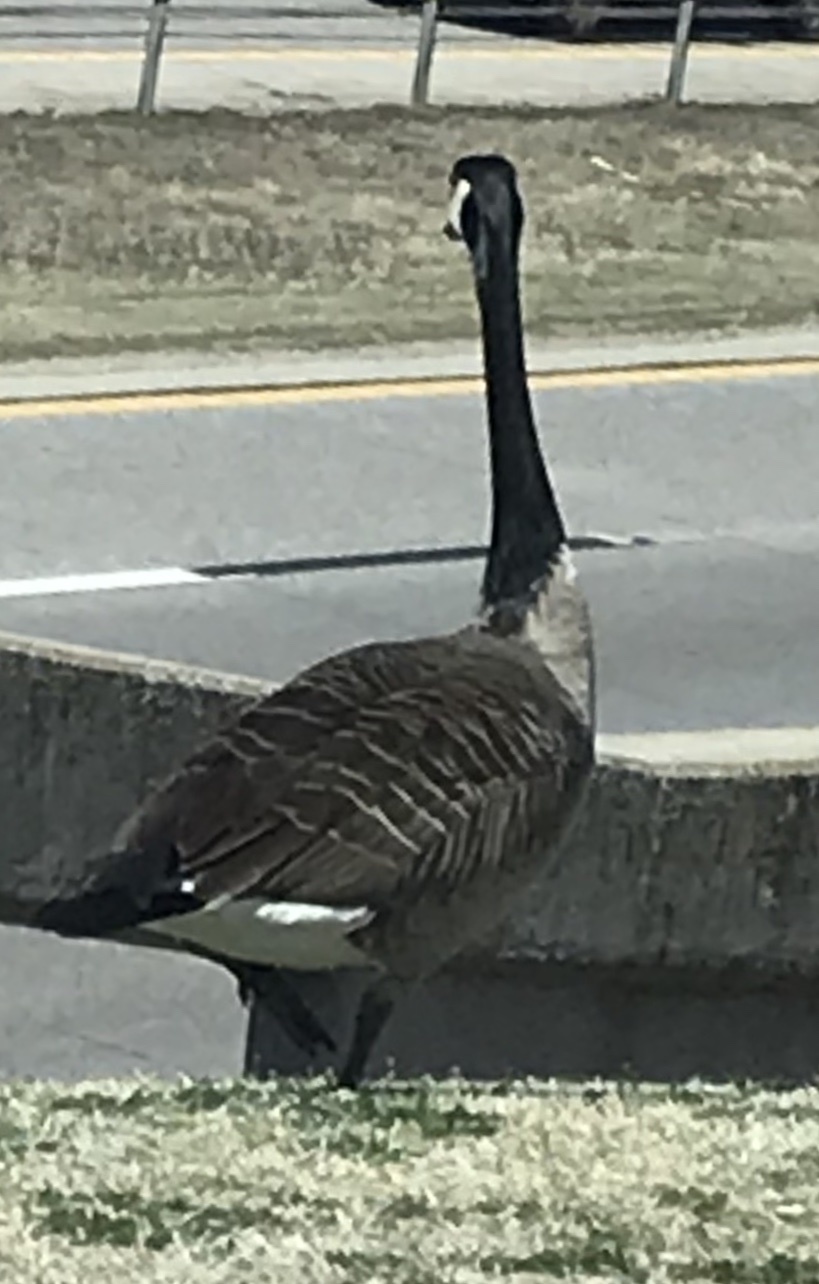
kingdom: Animalia
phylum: Chordata
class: Aves
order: Anseriformes
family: Anatidae
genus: Branta
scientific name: Branta canadensis
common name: Canada goose
